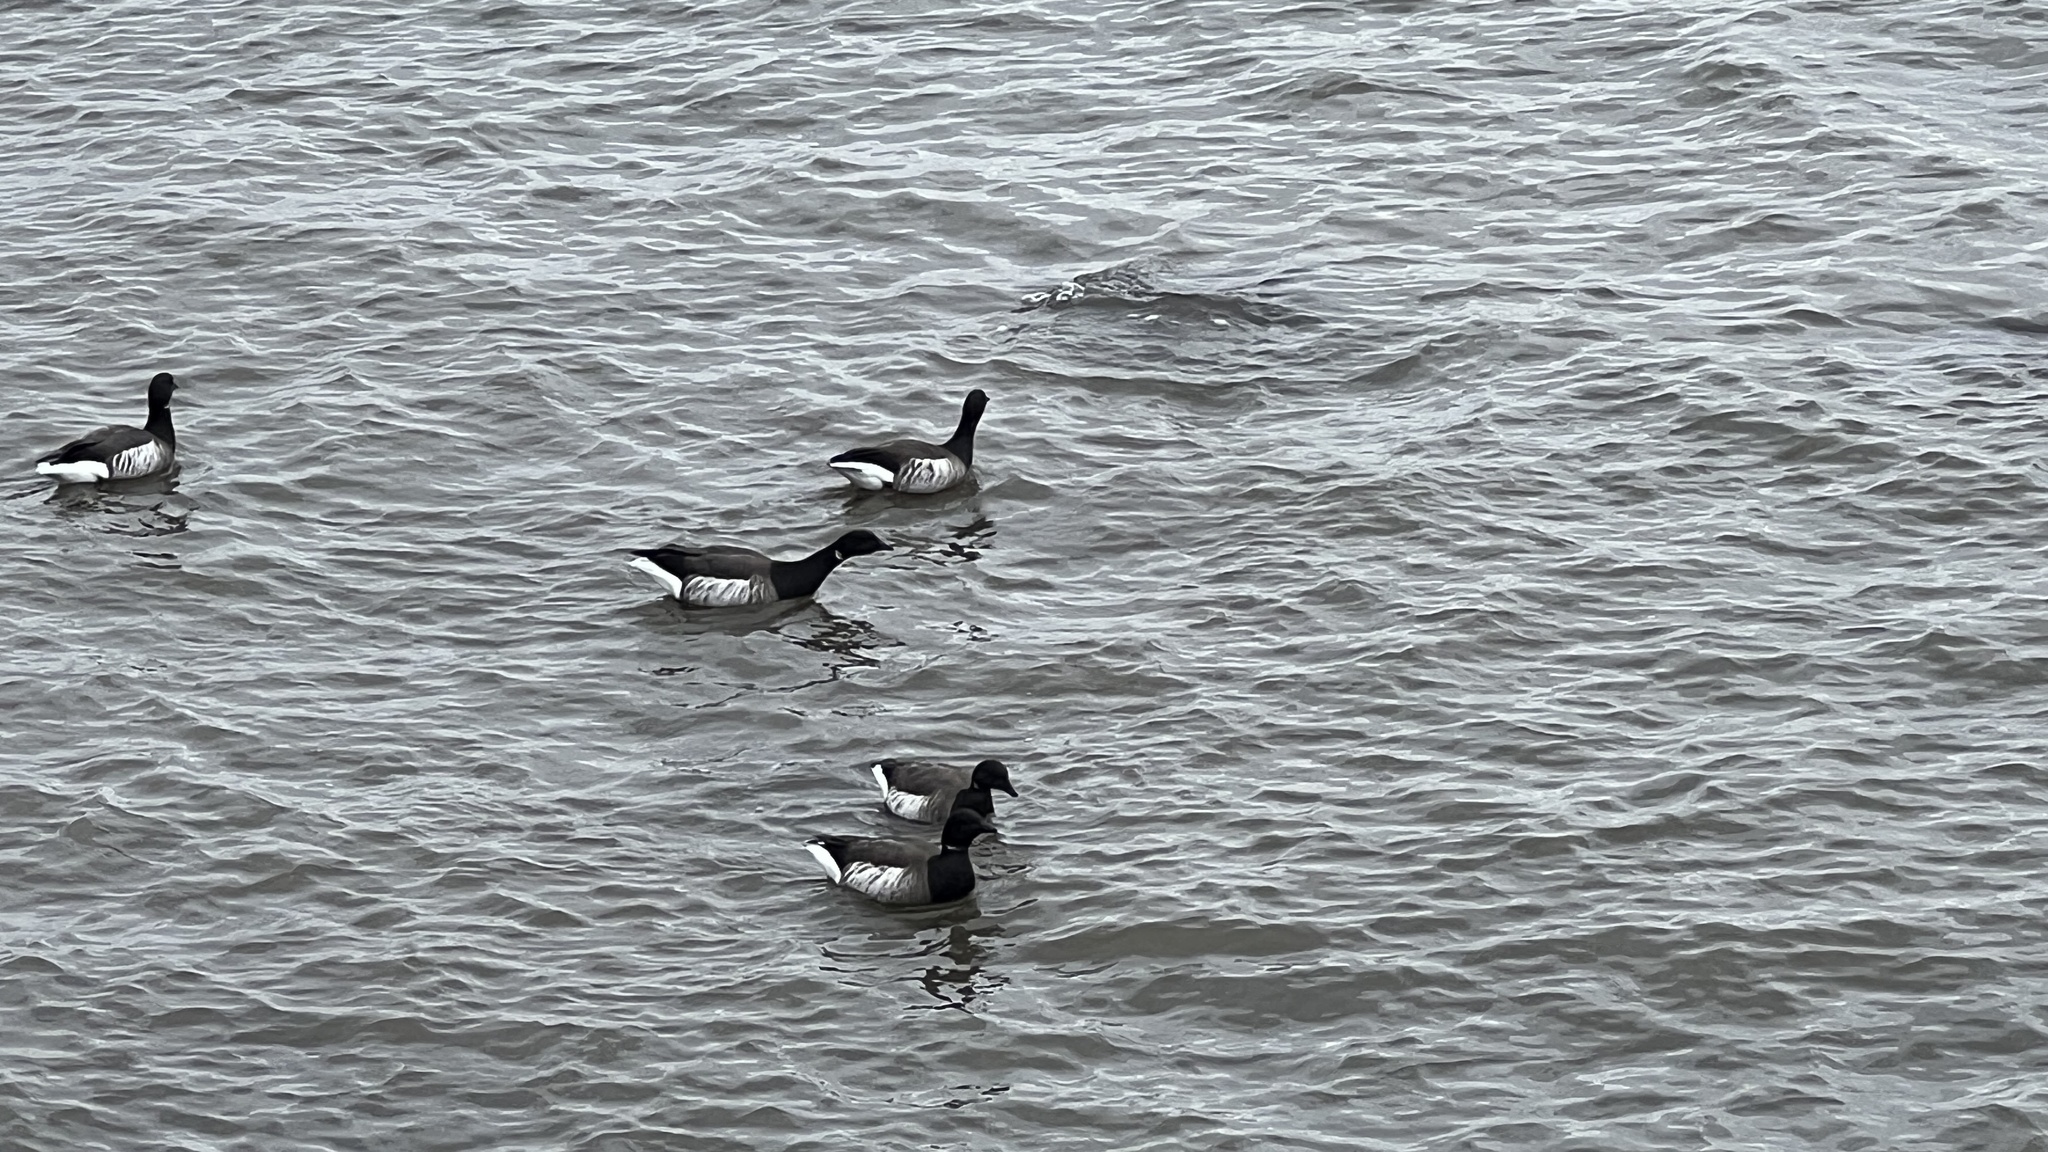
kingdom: Animalia
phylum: Chordata
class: Aves
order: Anseriformes
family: Anatidae
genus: Branta
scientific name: Branta bernicla
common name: Brant goose
